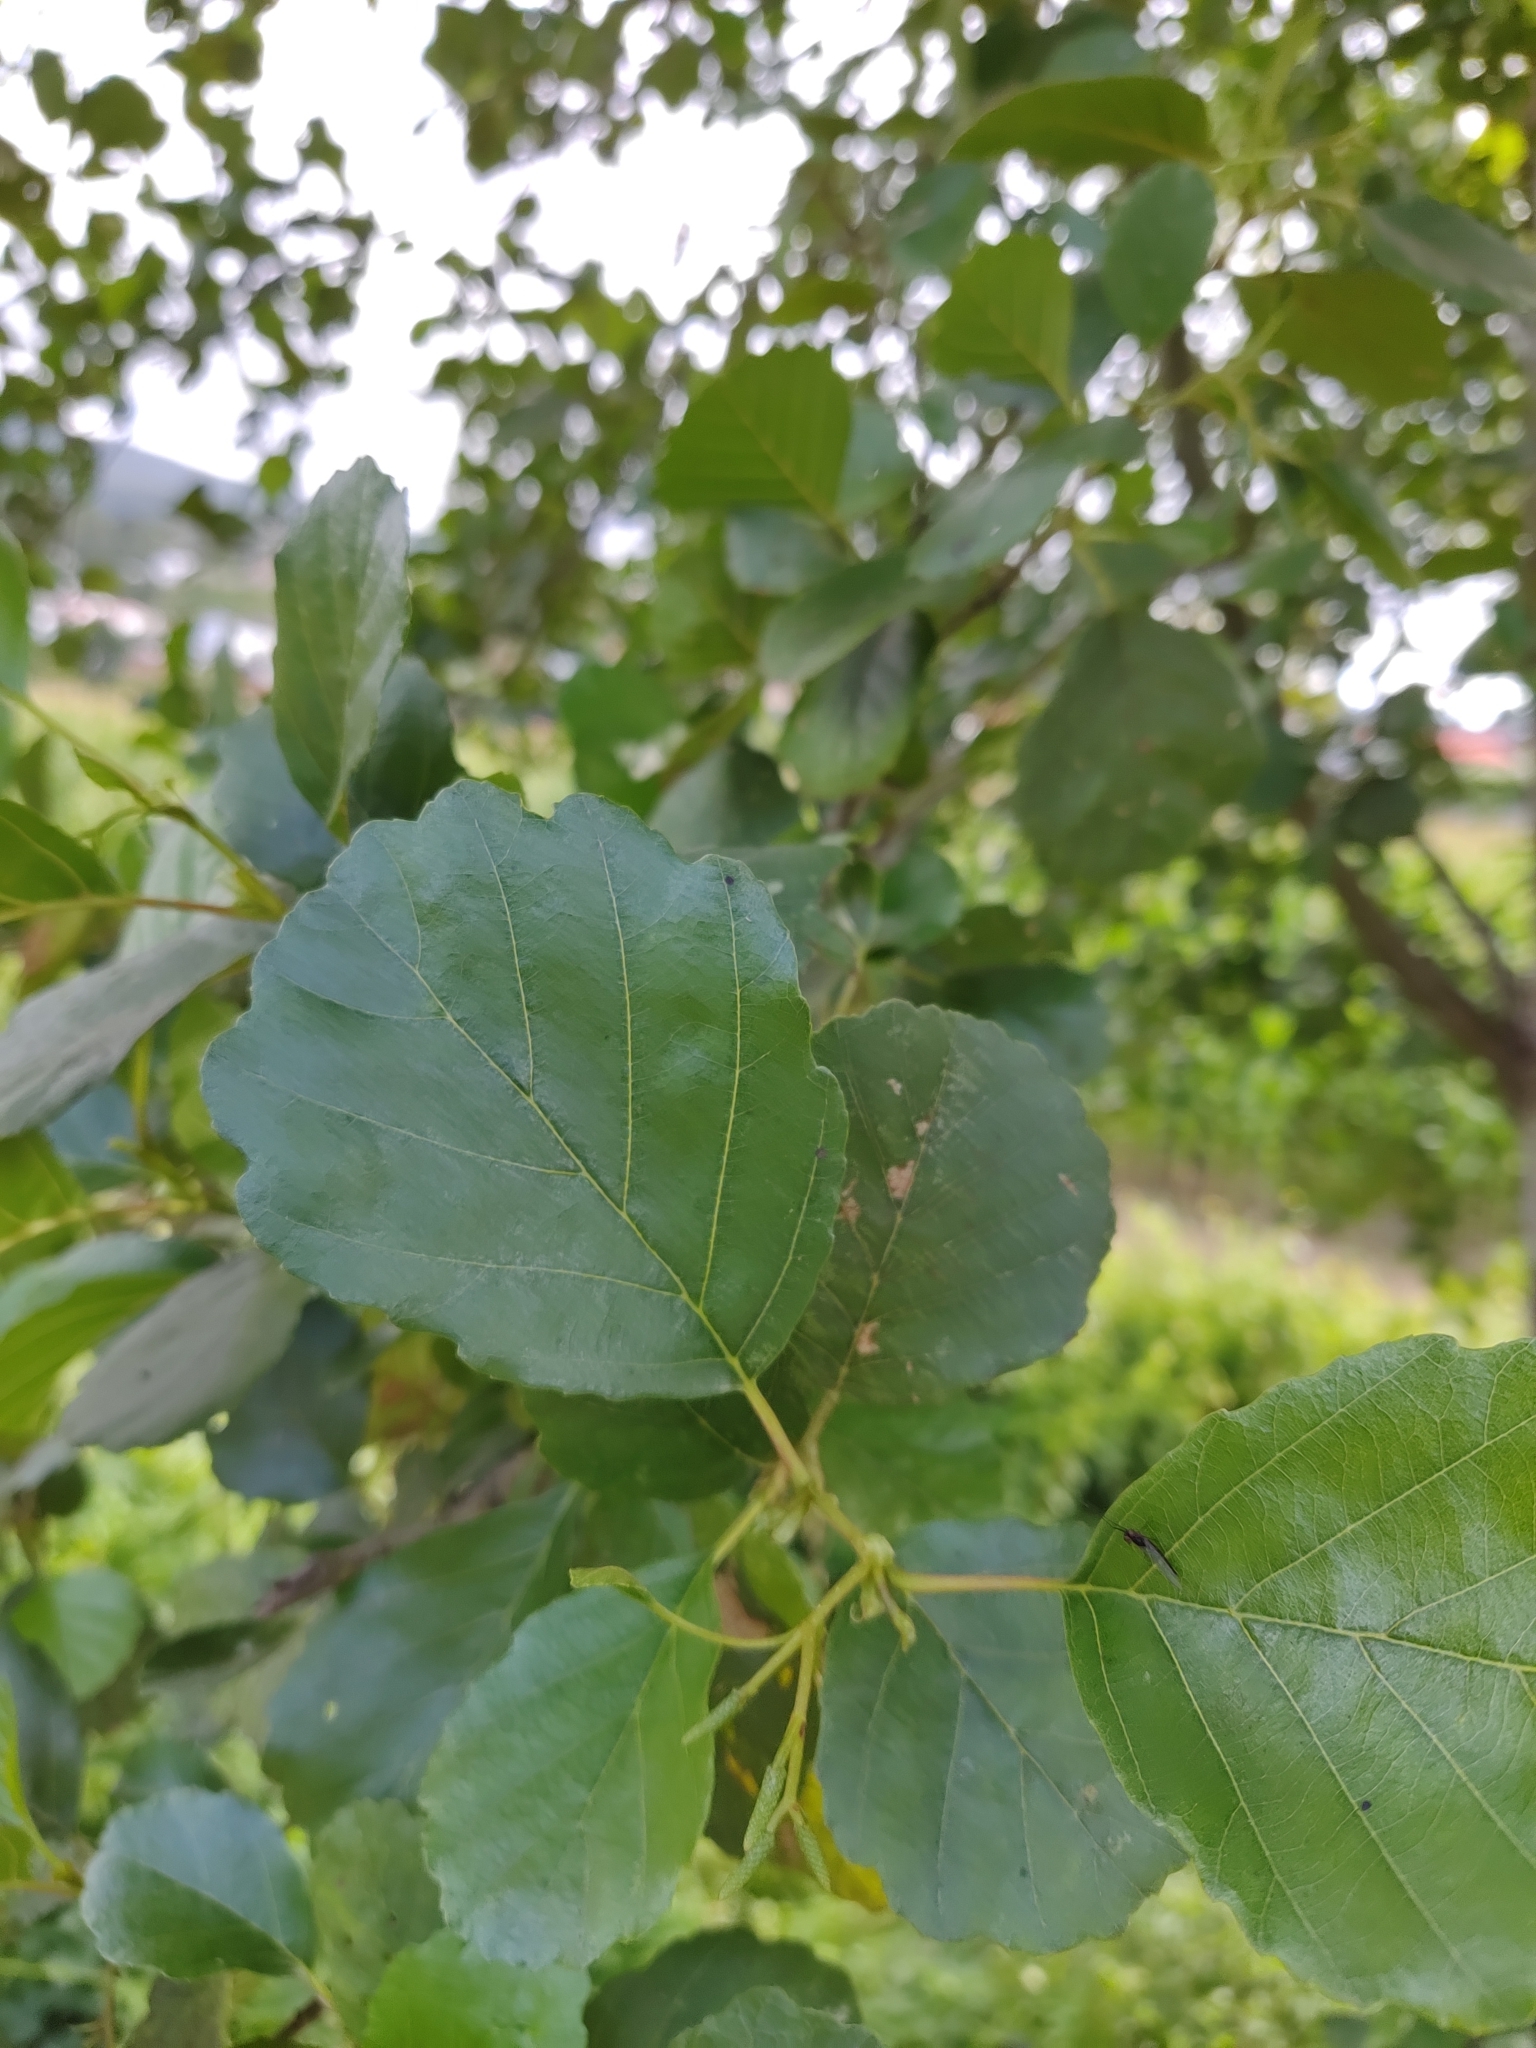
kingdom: Plantae
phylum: Tracheophyta
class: Magnoliopsida
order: Fagales
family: Betulaceae
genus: Alnus
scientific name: Alnus lusitanica
